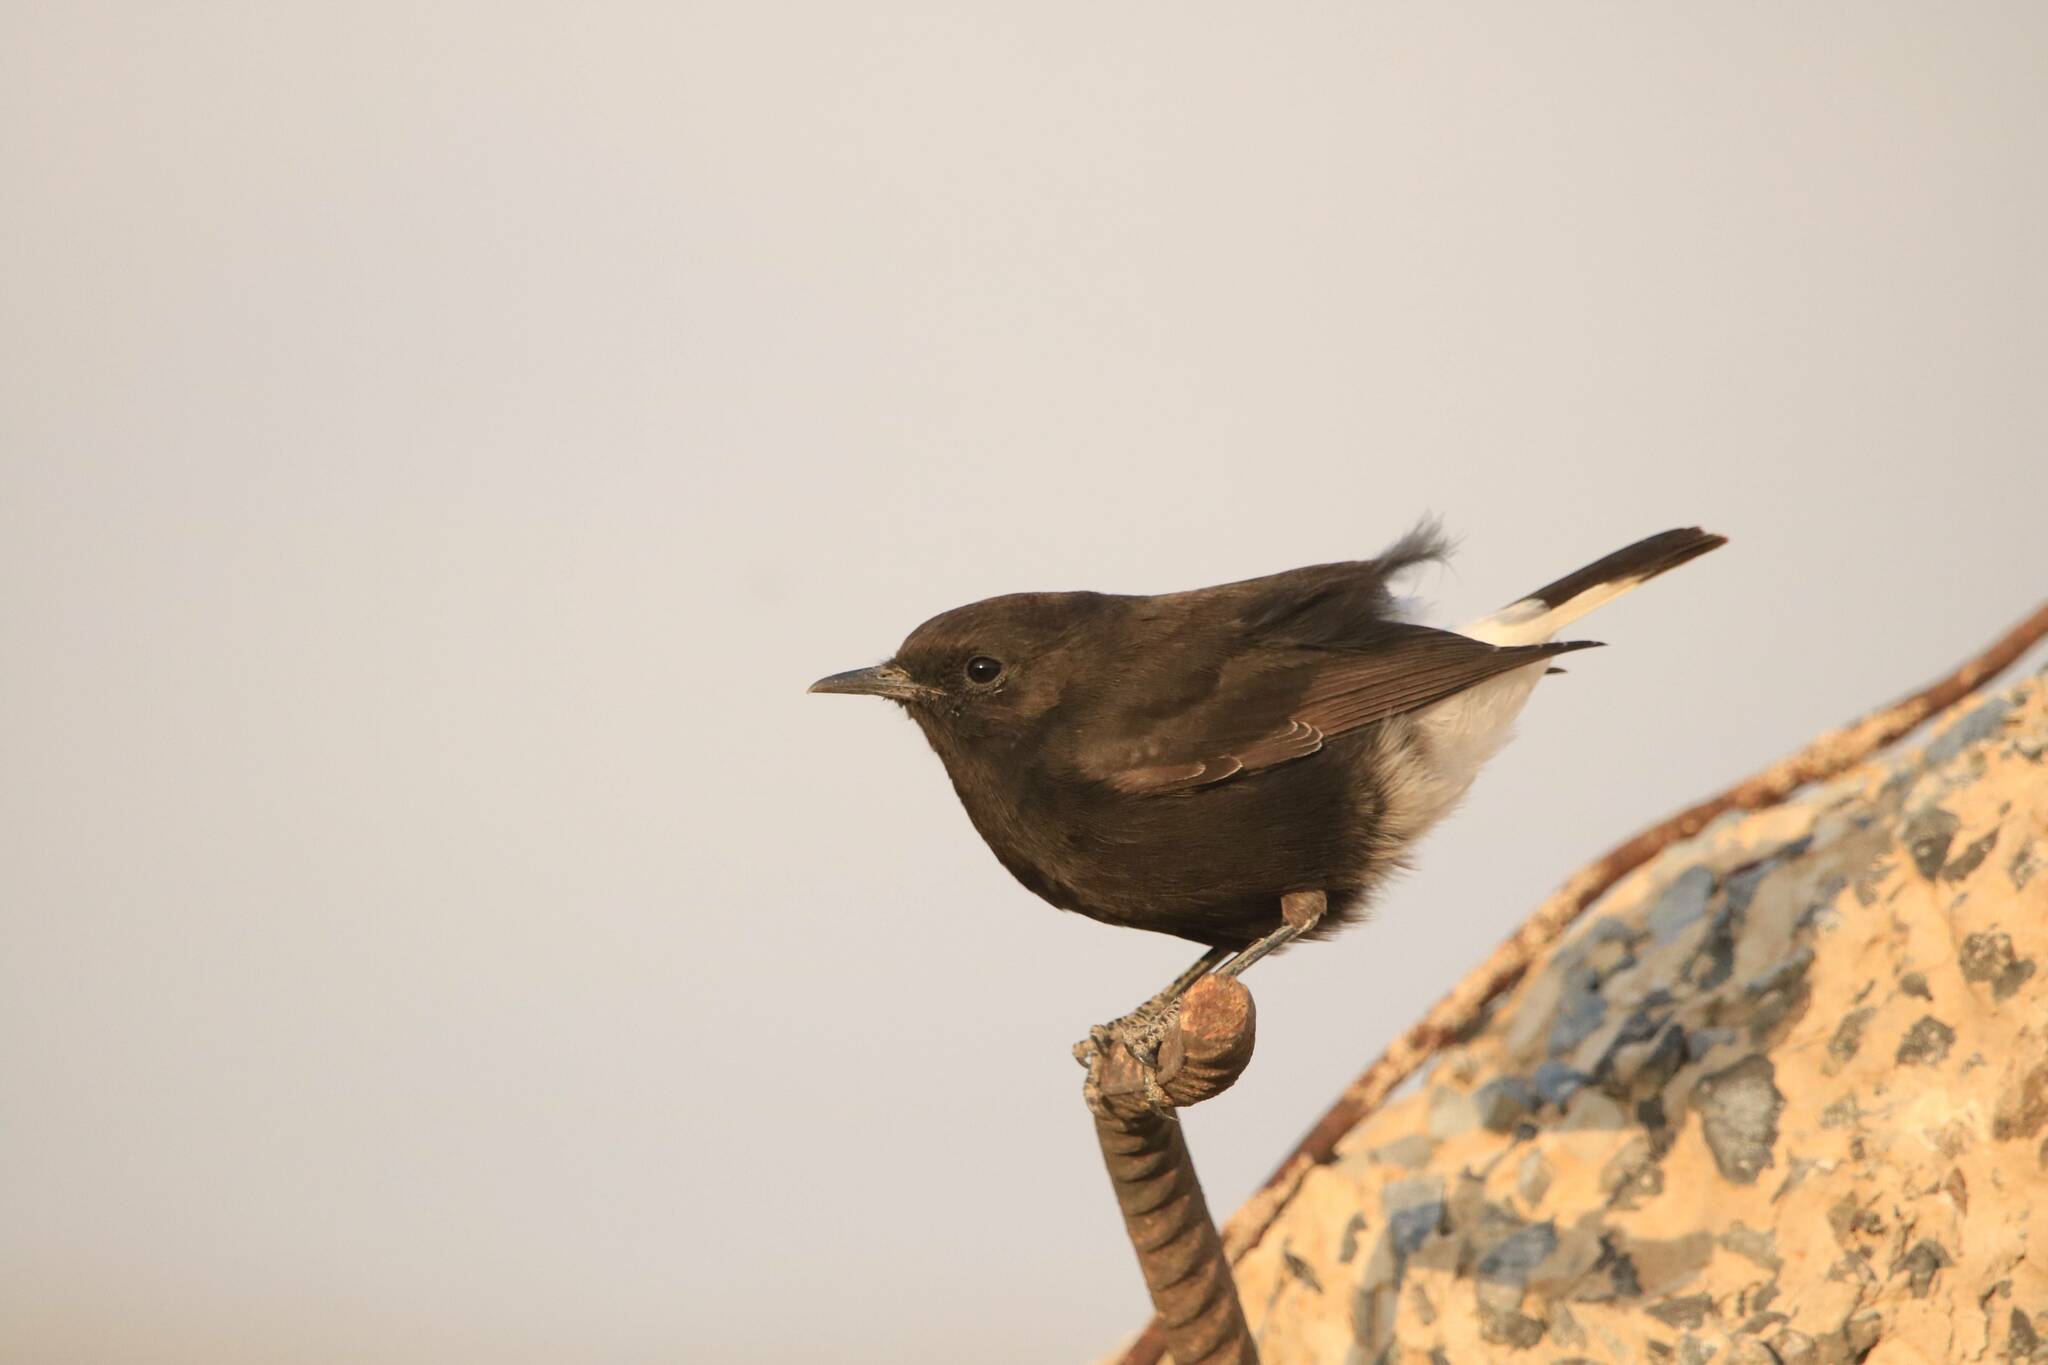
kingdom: Animalia
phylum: Chordata
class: Aves
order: Passeriformes
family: Muscicapidae
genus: Oenanthe
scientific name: Oenanthe leucura
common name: Black wheatear
